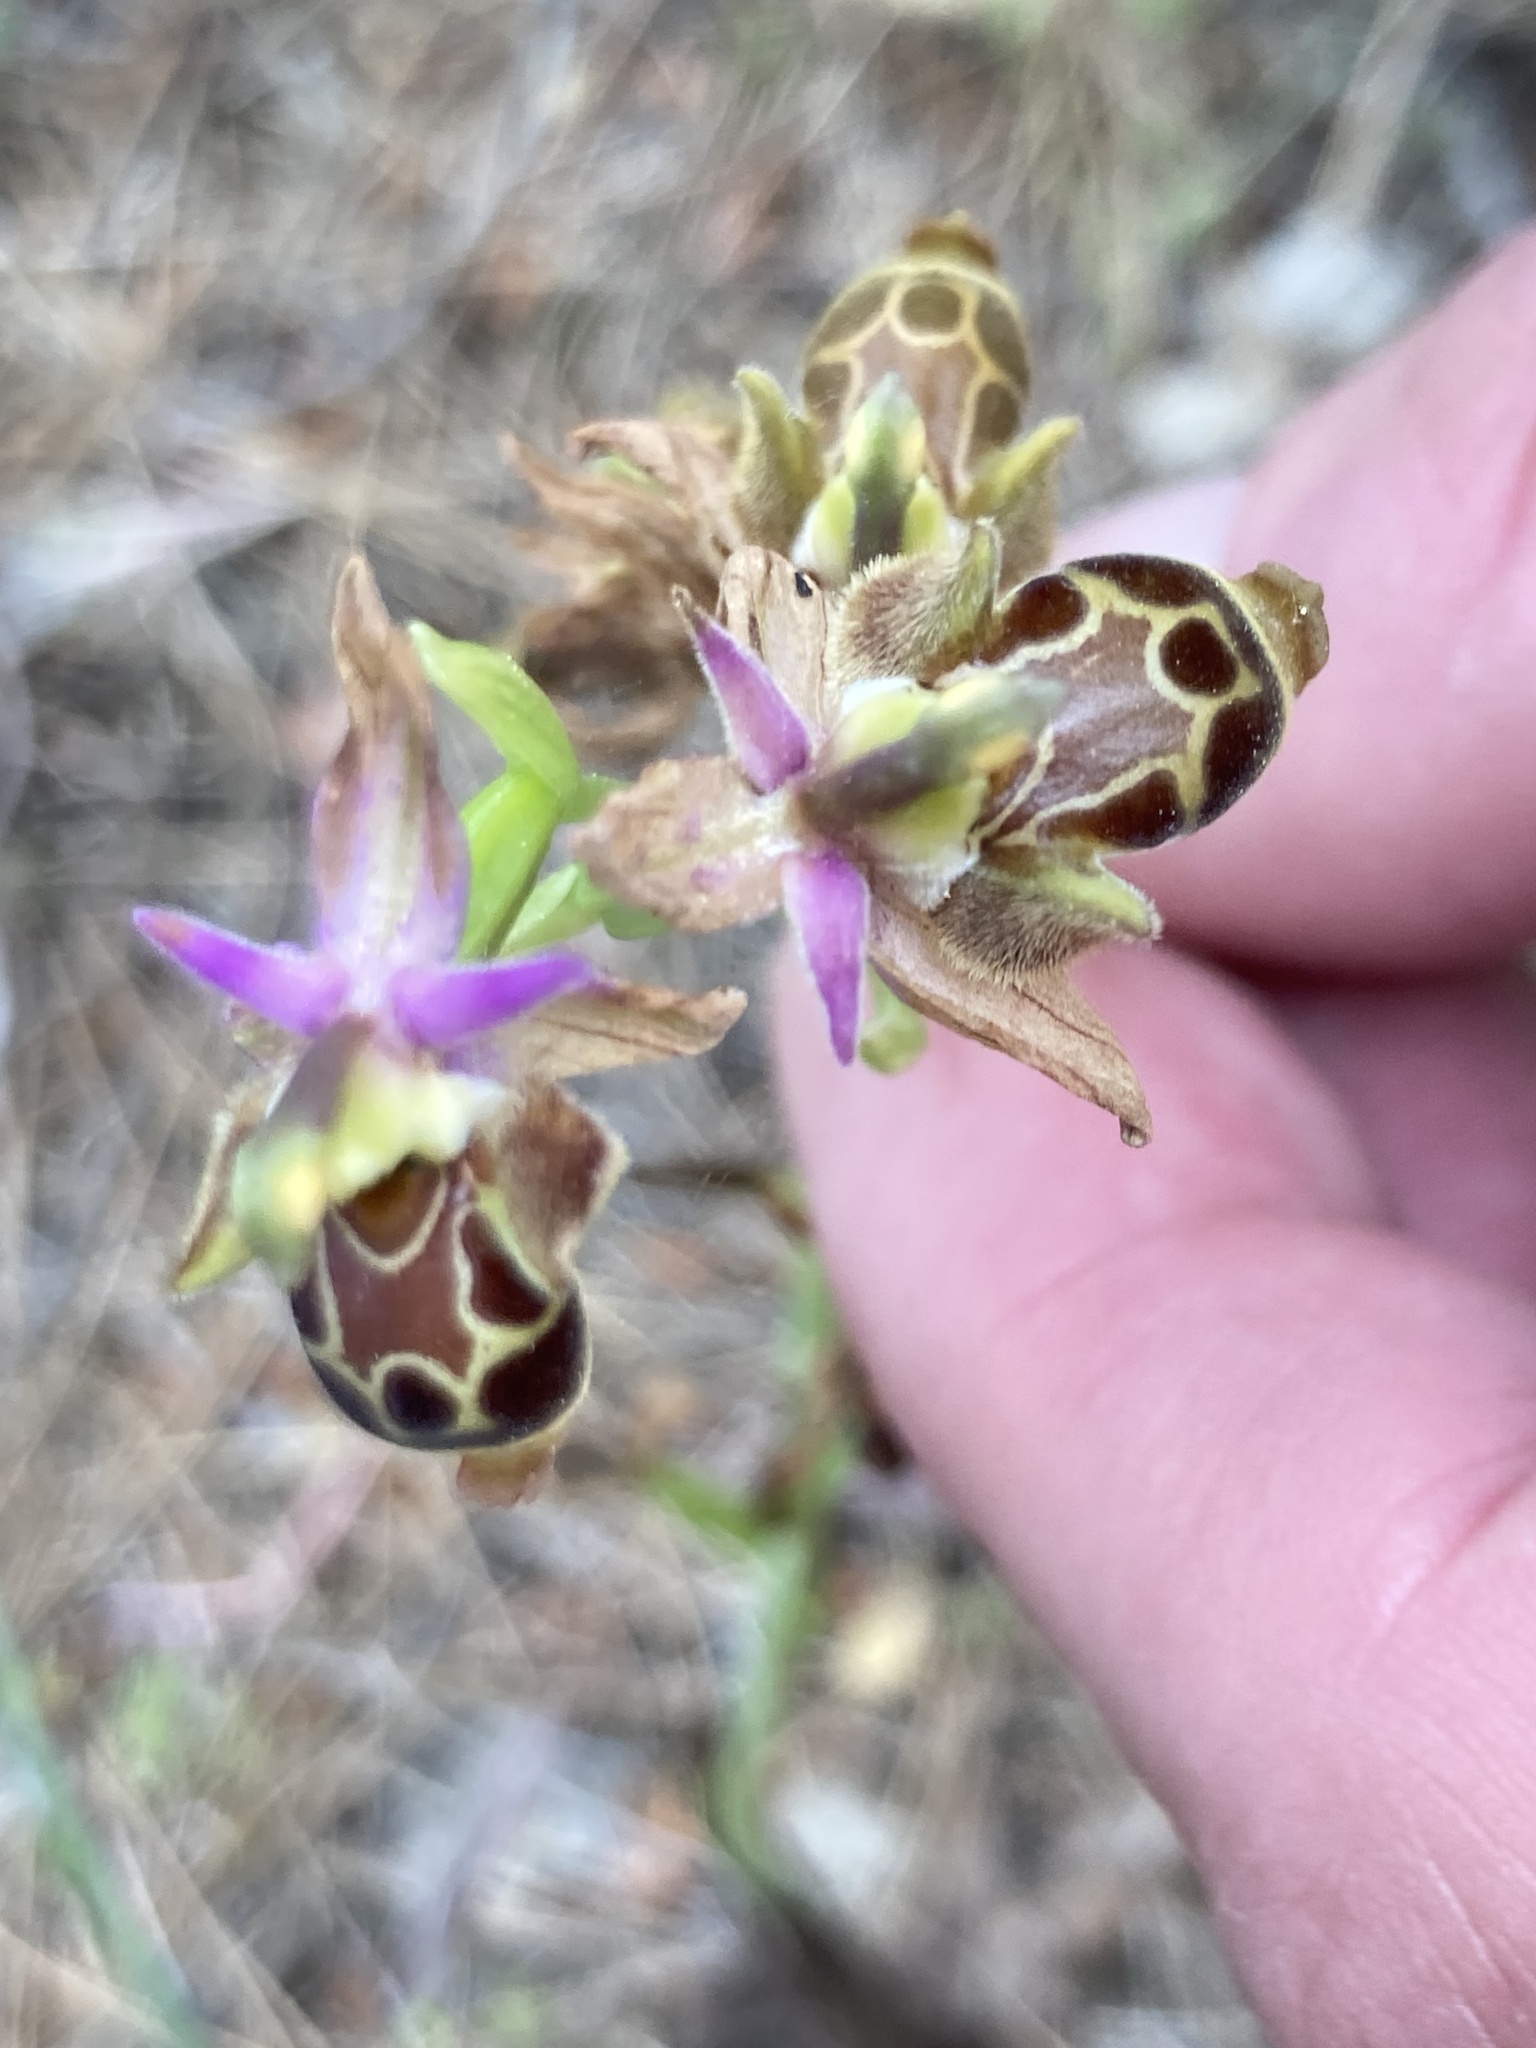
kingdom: Plantae
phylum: Tracheophyta
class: Liliopsida
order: Asparagales
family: Orchidaceae
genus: Ophrys
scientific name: Ophrys
